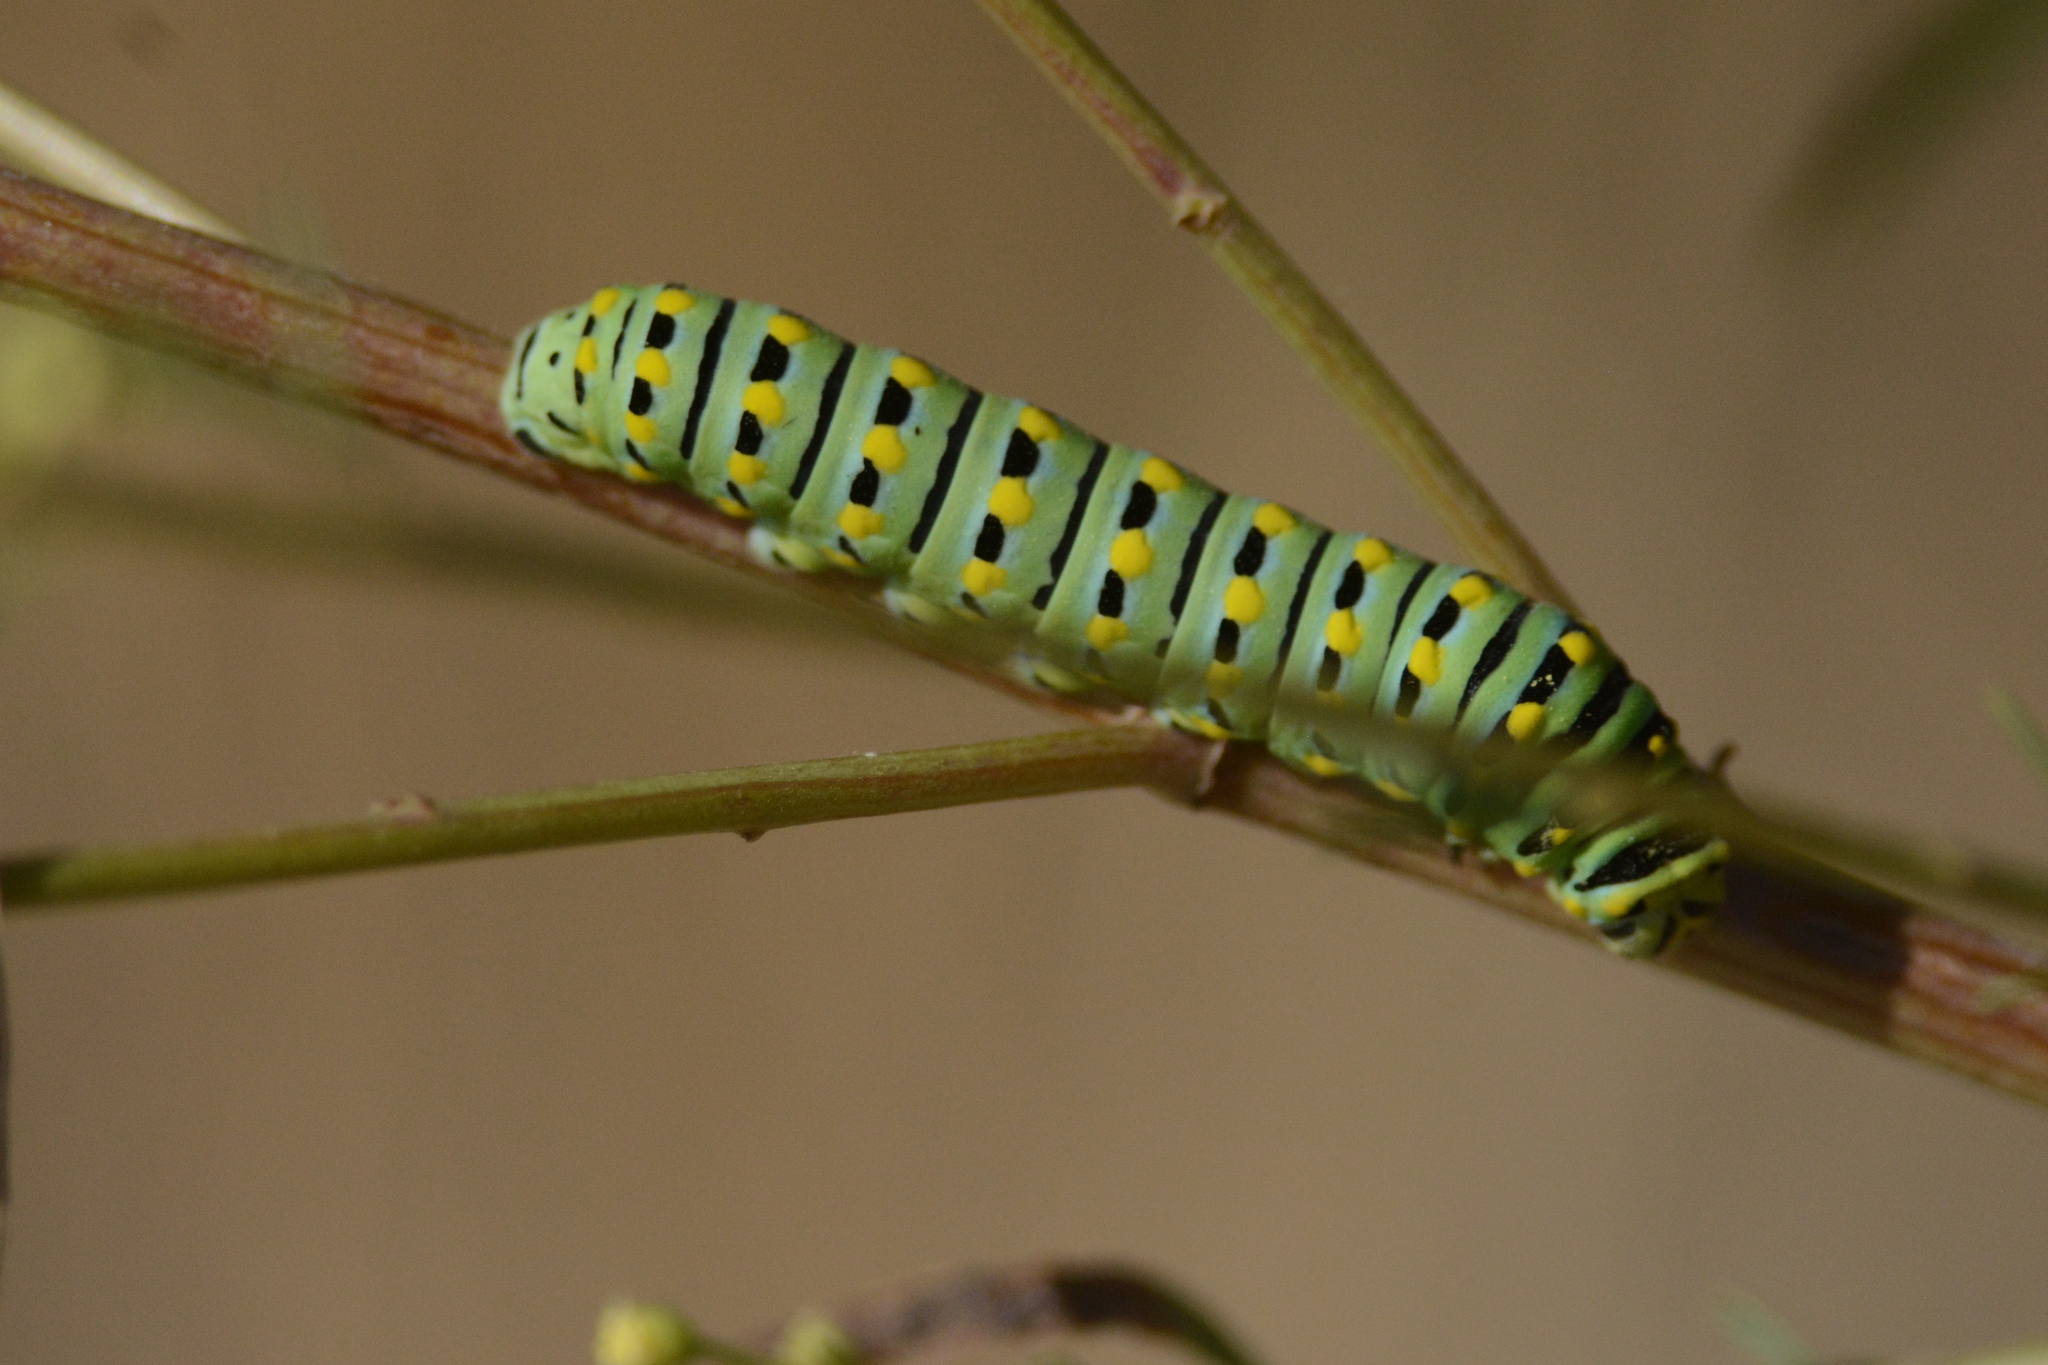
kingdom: Animalia
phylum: Arthropoda
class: Insecta
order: Lepidoptera
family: Papilionidae
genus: Papilio
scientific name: Papilio
